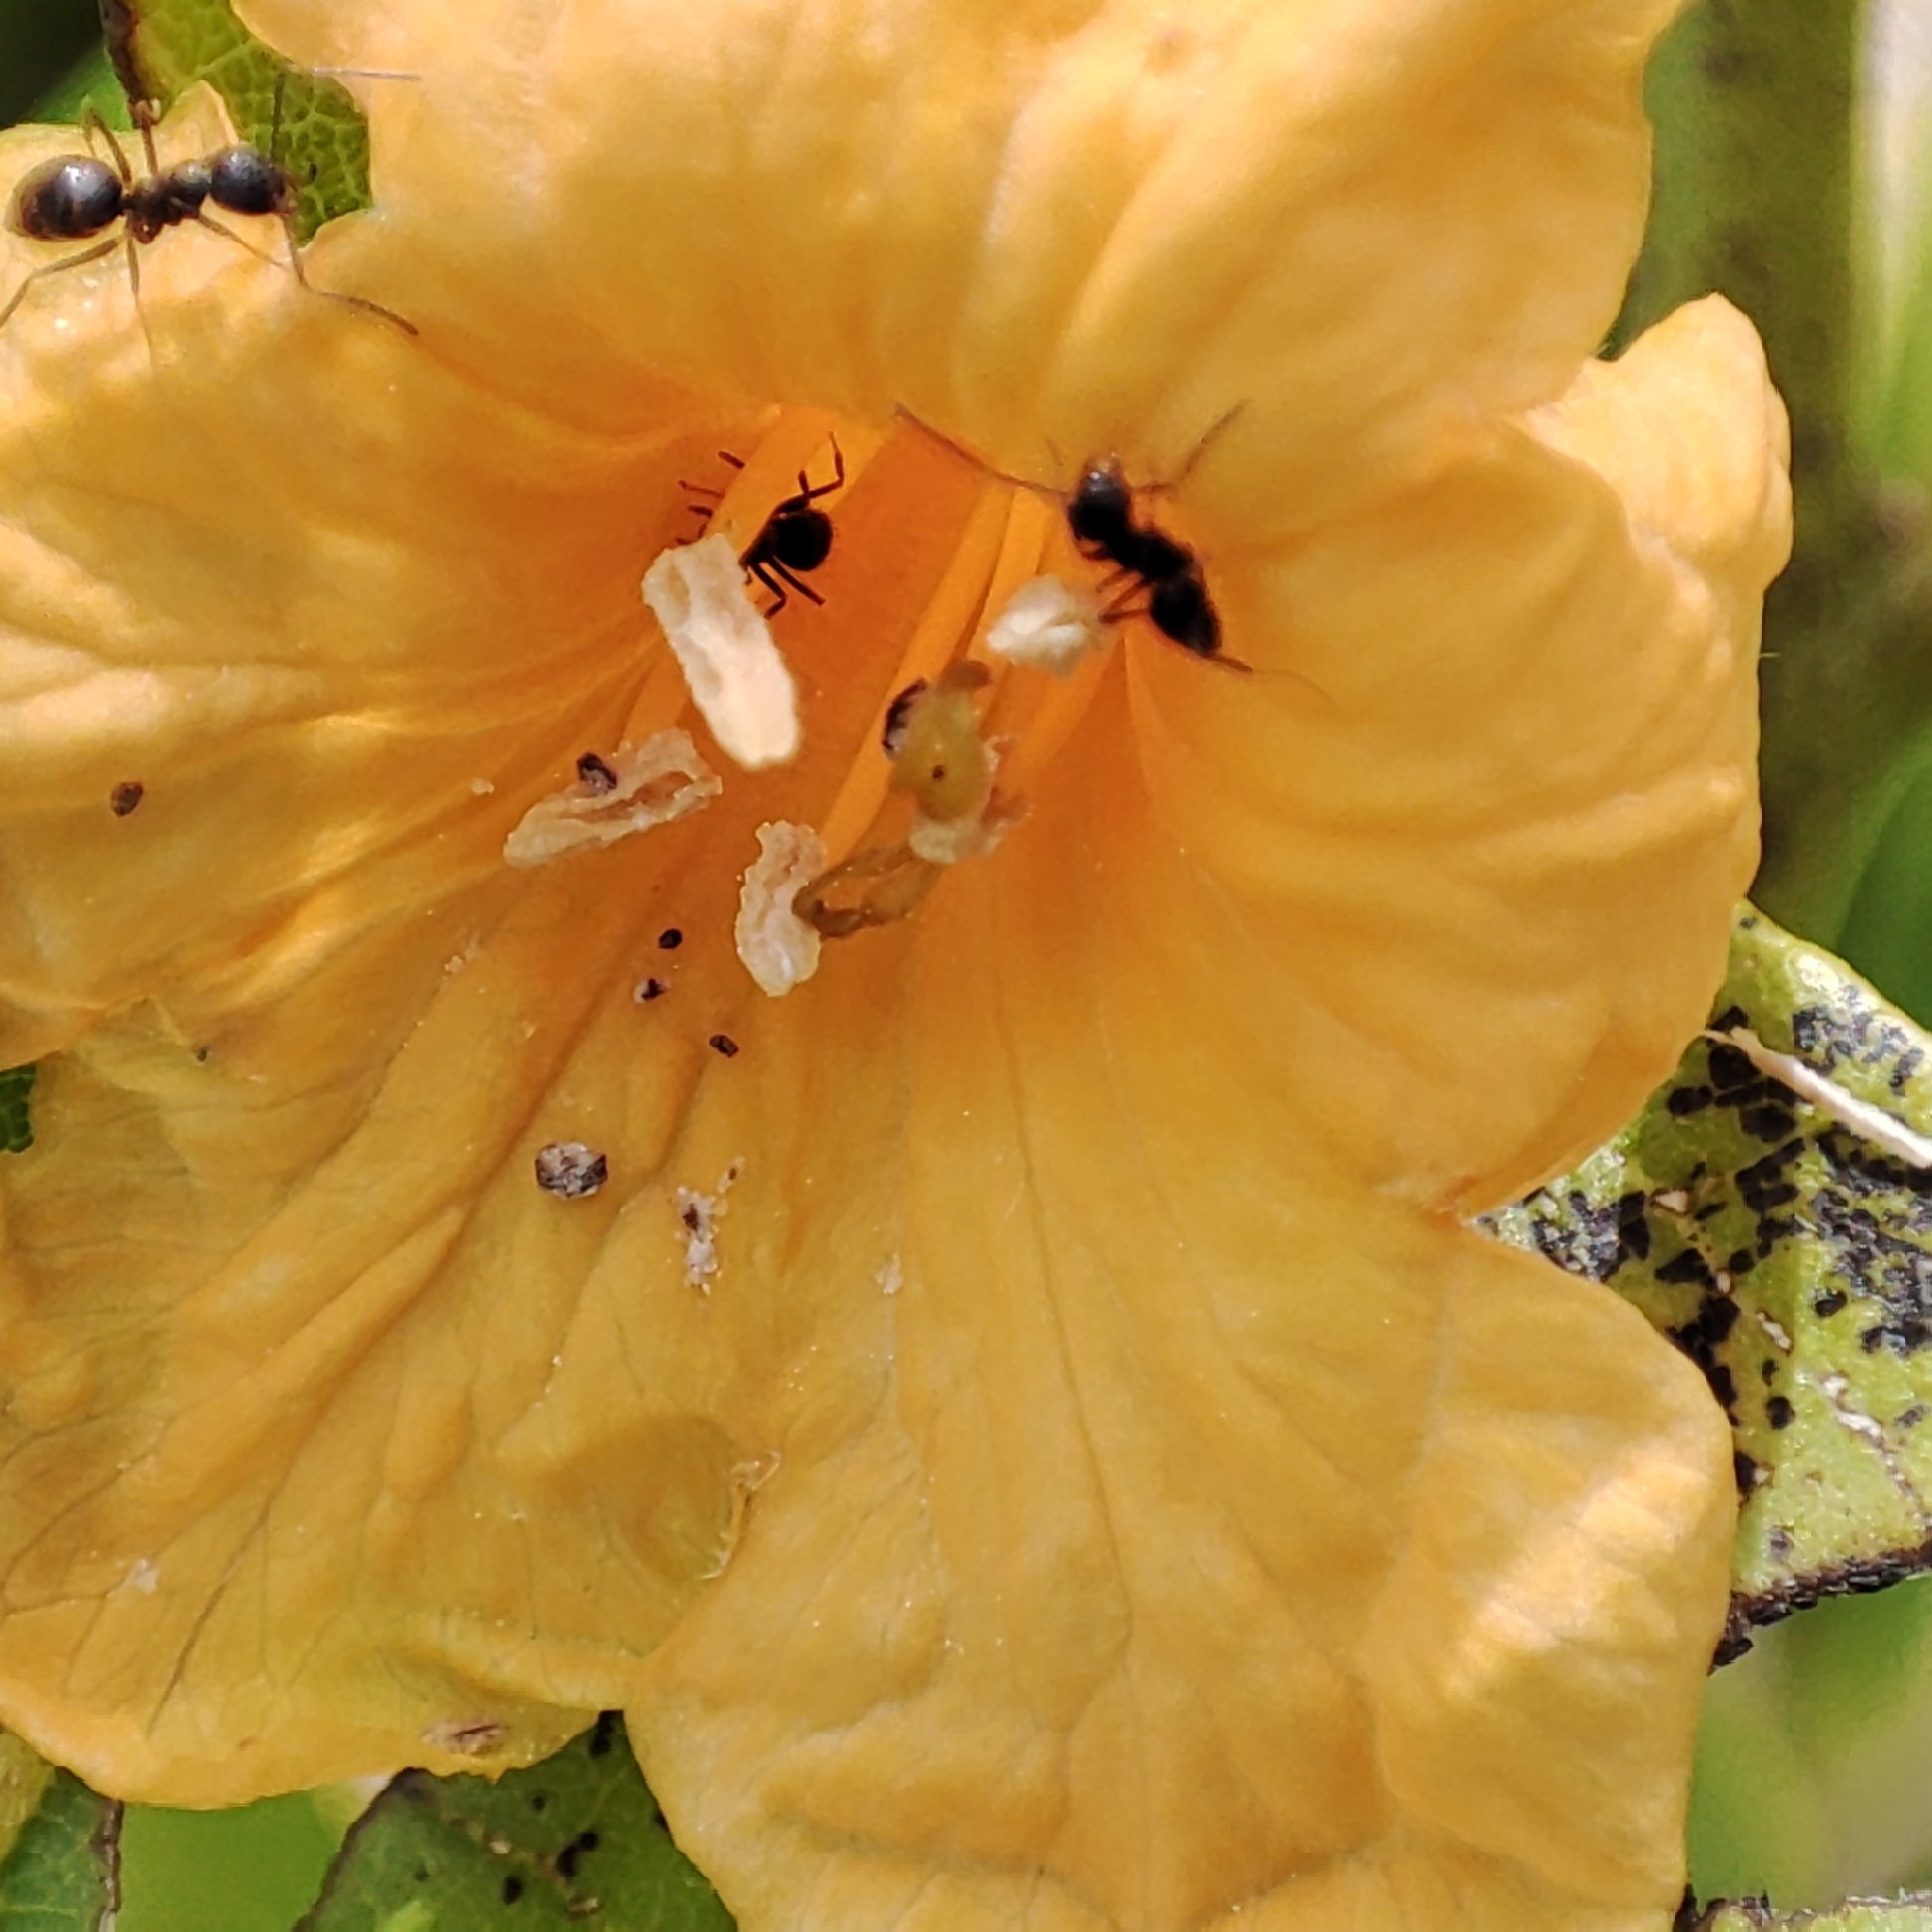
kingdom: Plantae
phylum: Tracheophyta
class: Magnoliopsida
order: Boraginales
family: Cordiaceae
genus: Cordia
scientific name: Cordia subcordata
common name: Mareer
